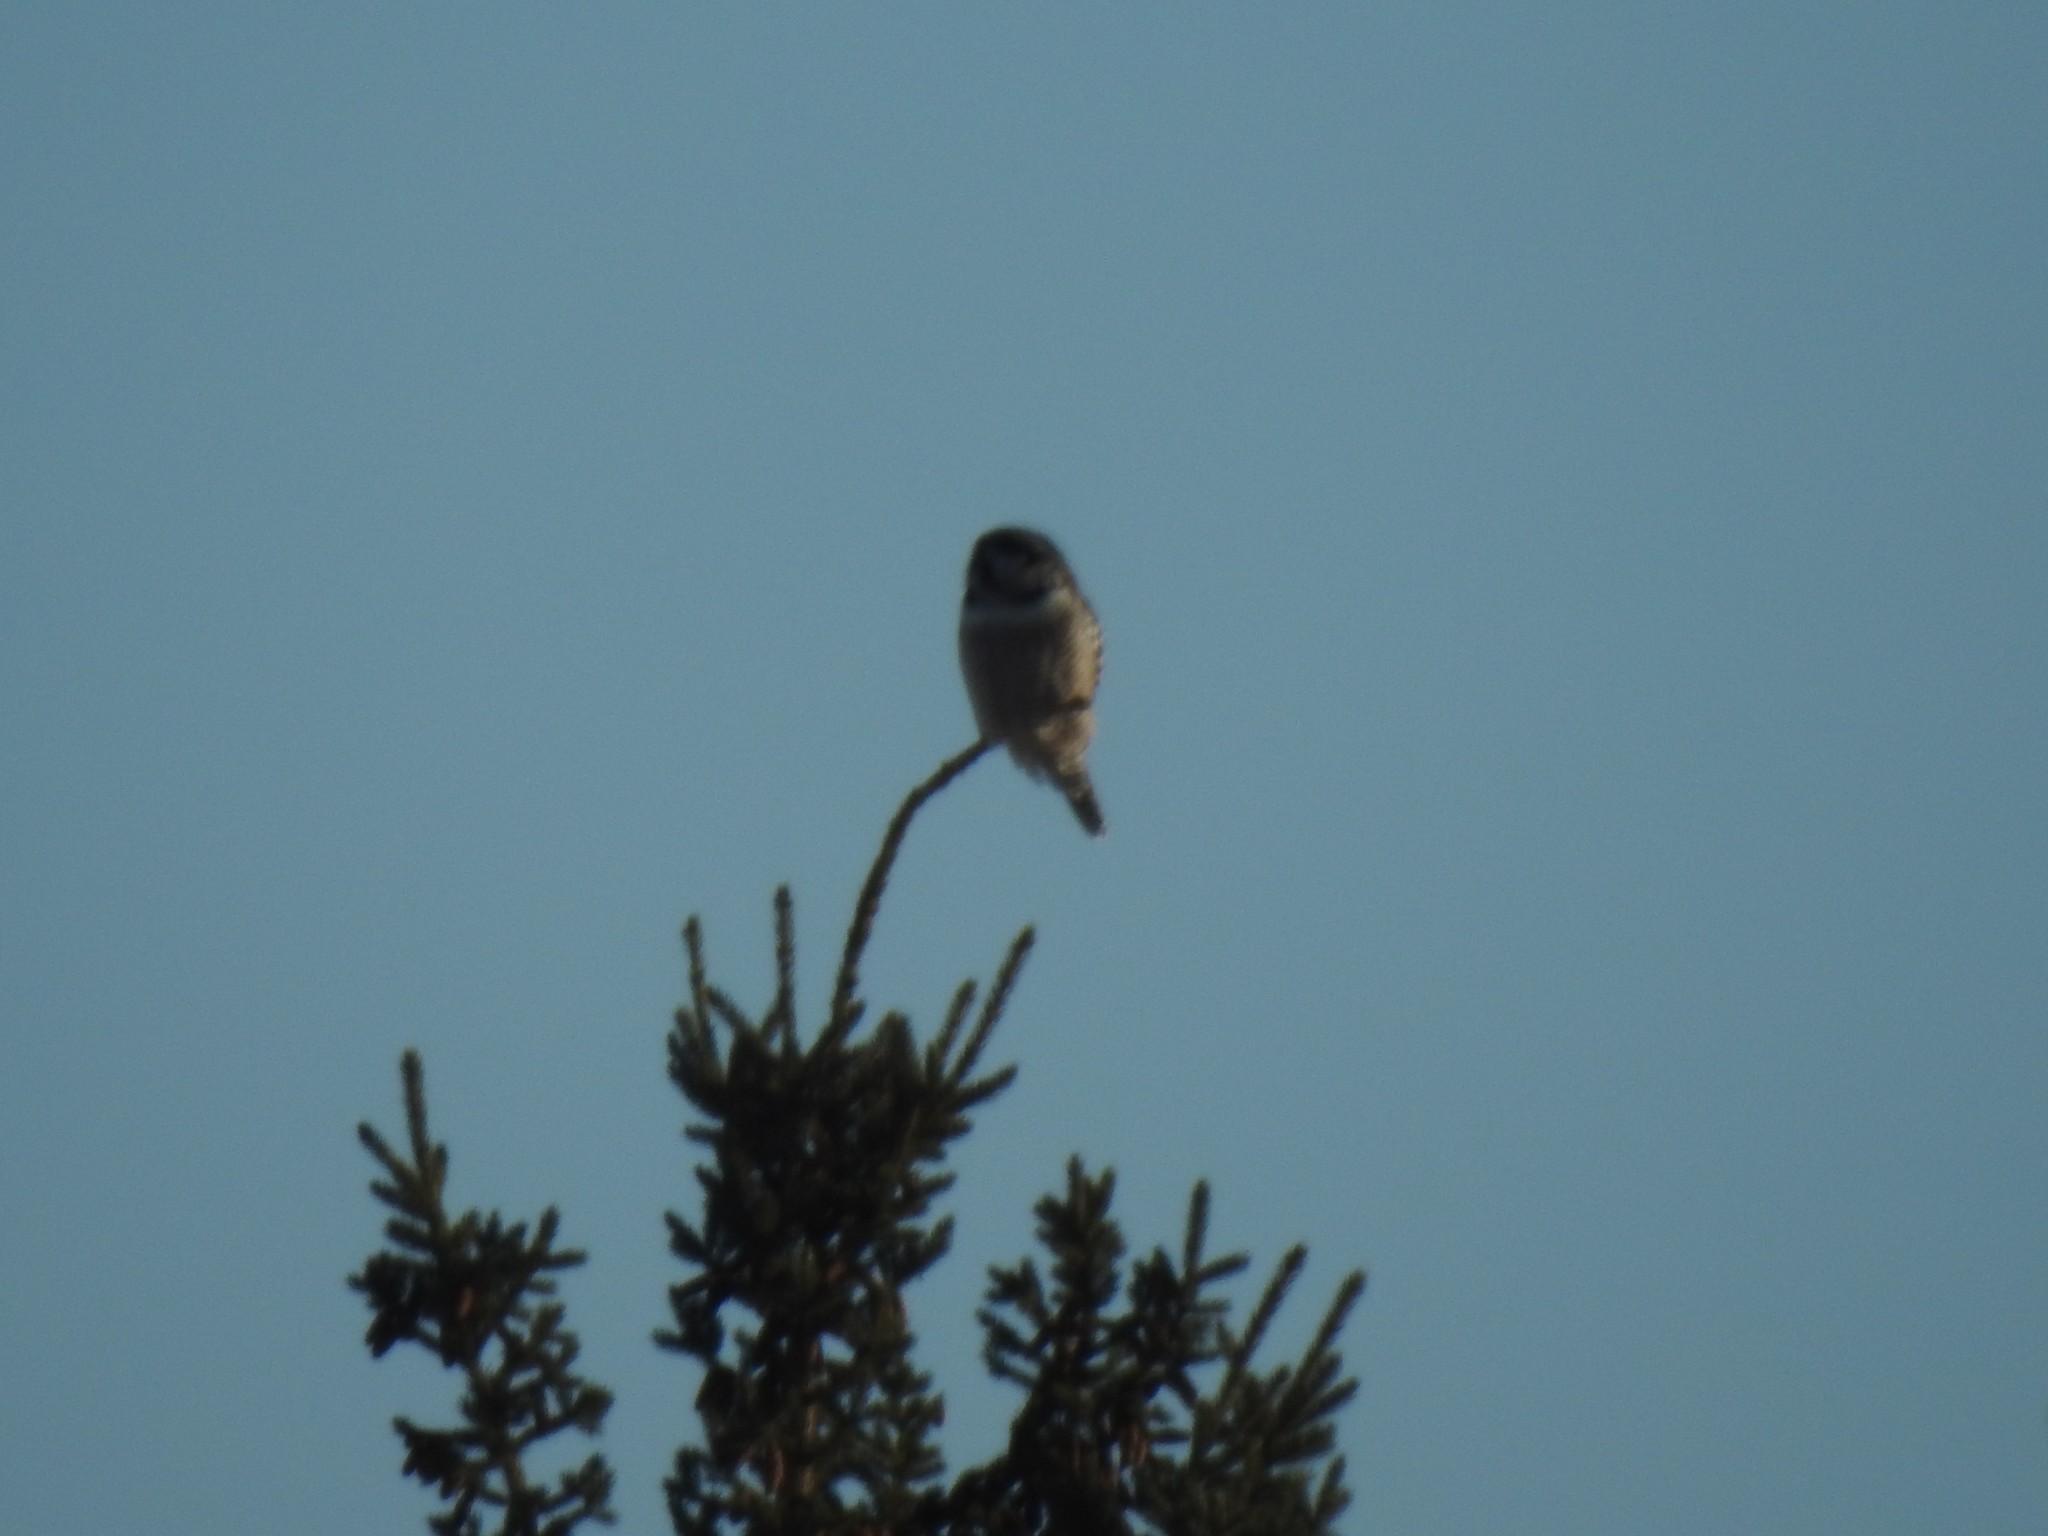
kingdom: Animalia
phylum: Chordata
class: Aves
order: Strigiformes
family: Strigidae
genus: Surnia
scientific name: Surnia ulula
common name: Northern hawk-owl
